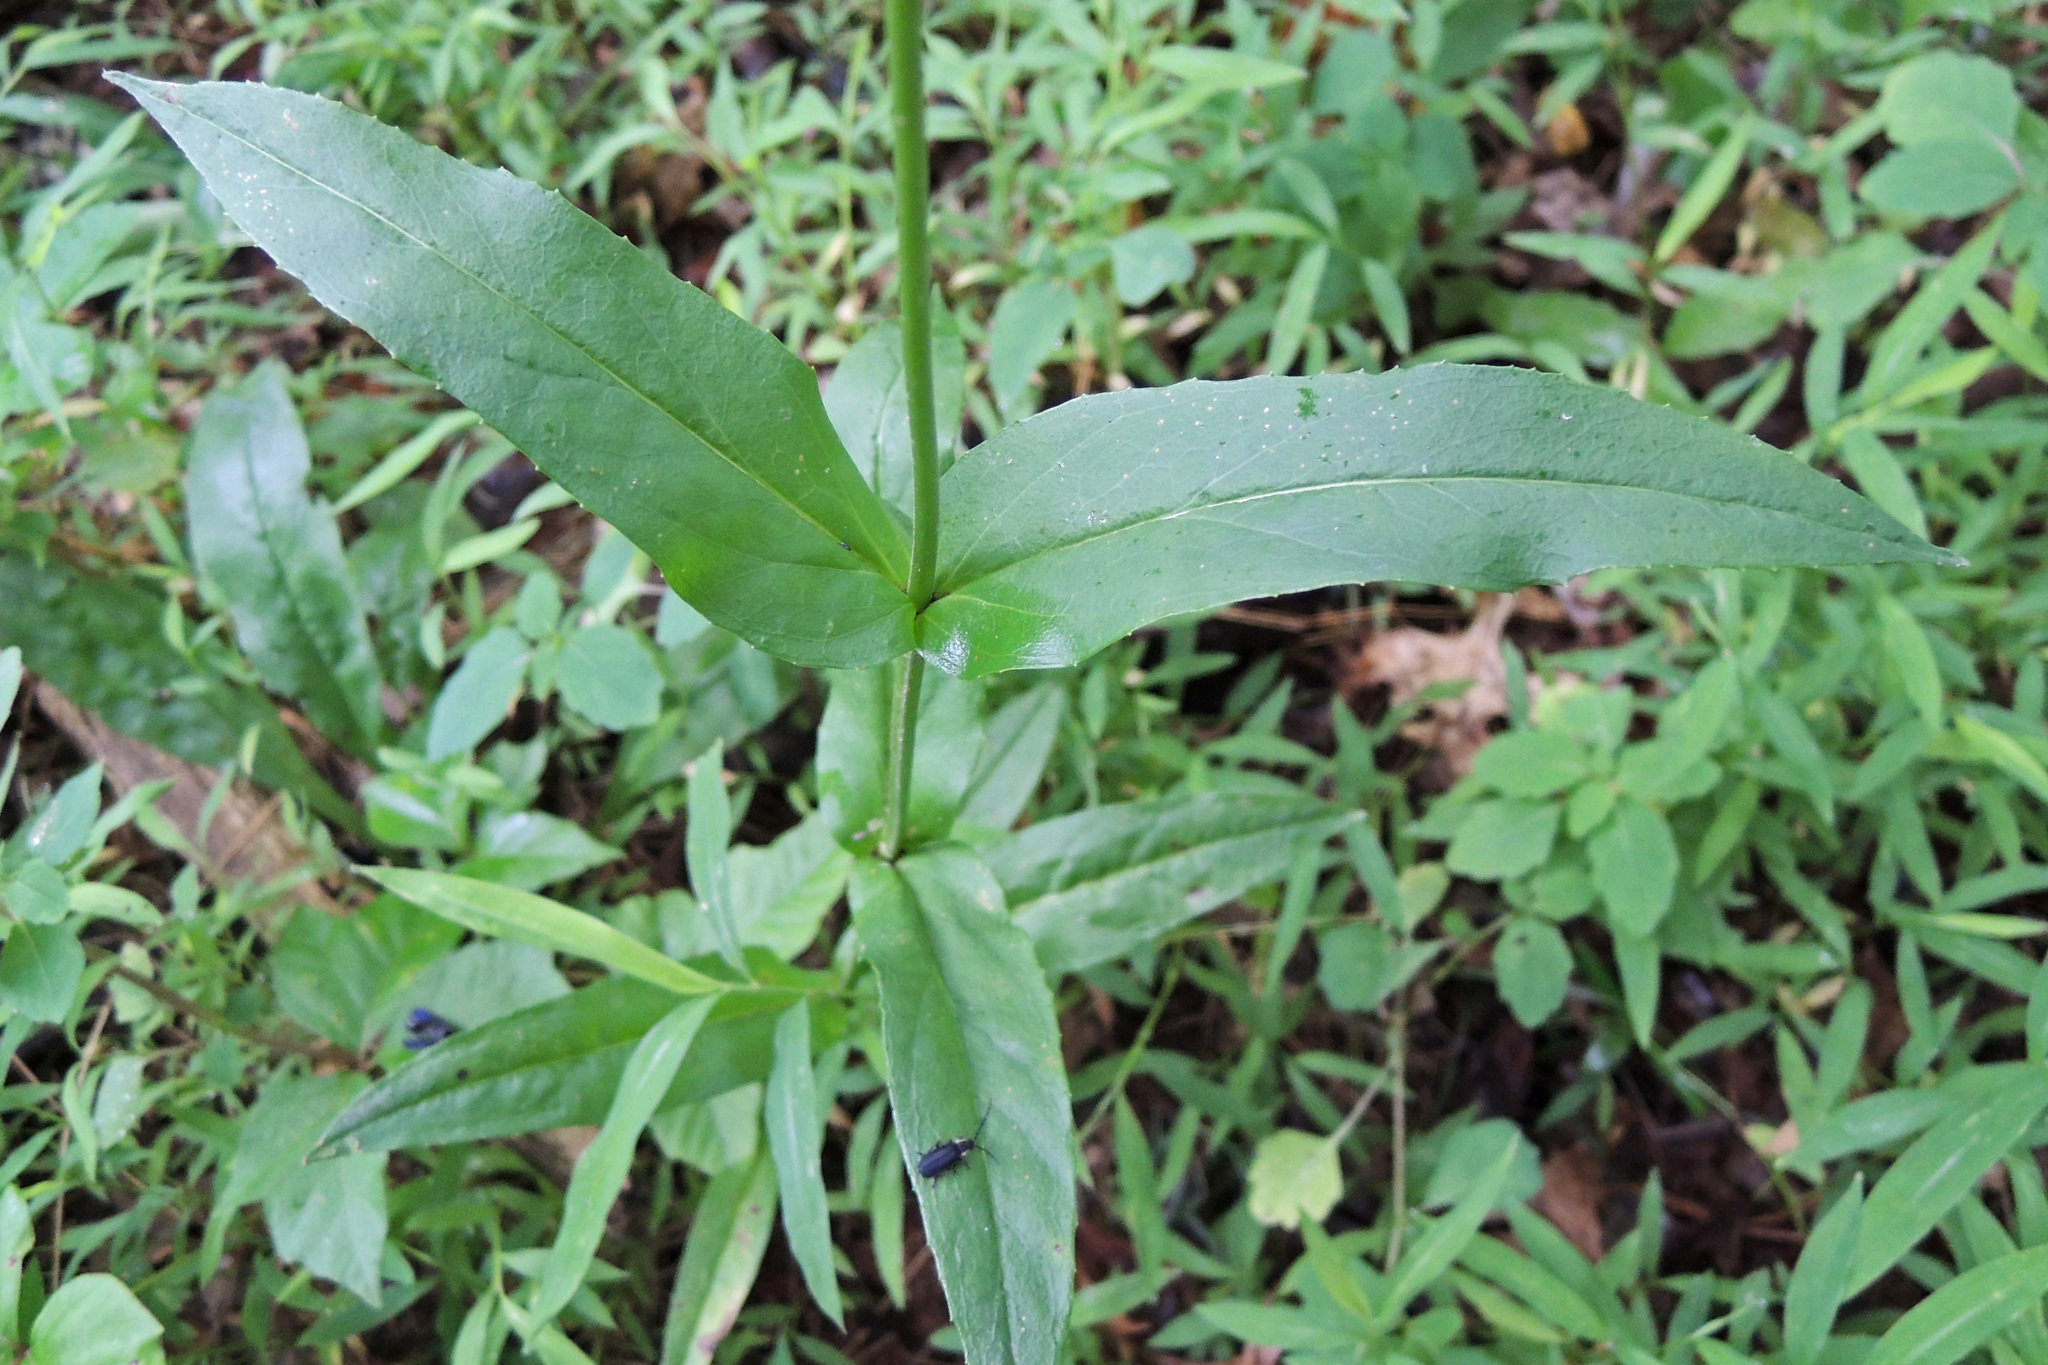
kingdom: Plantae
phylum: Tracheophyta
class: Magnoliopsida
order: Lamiales
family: Plantaginaceae
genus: Penstemon
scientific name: Penstemon digitalis
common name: Foxglove beardtongue
